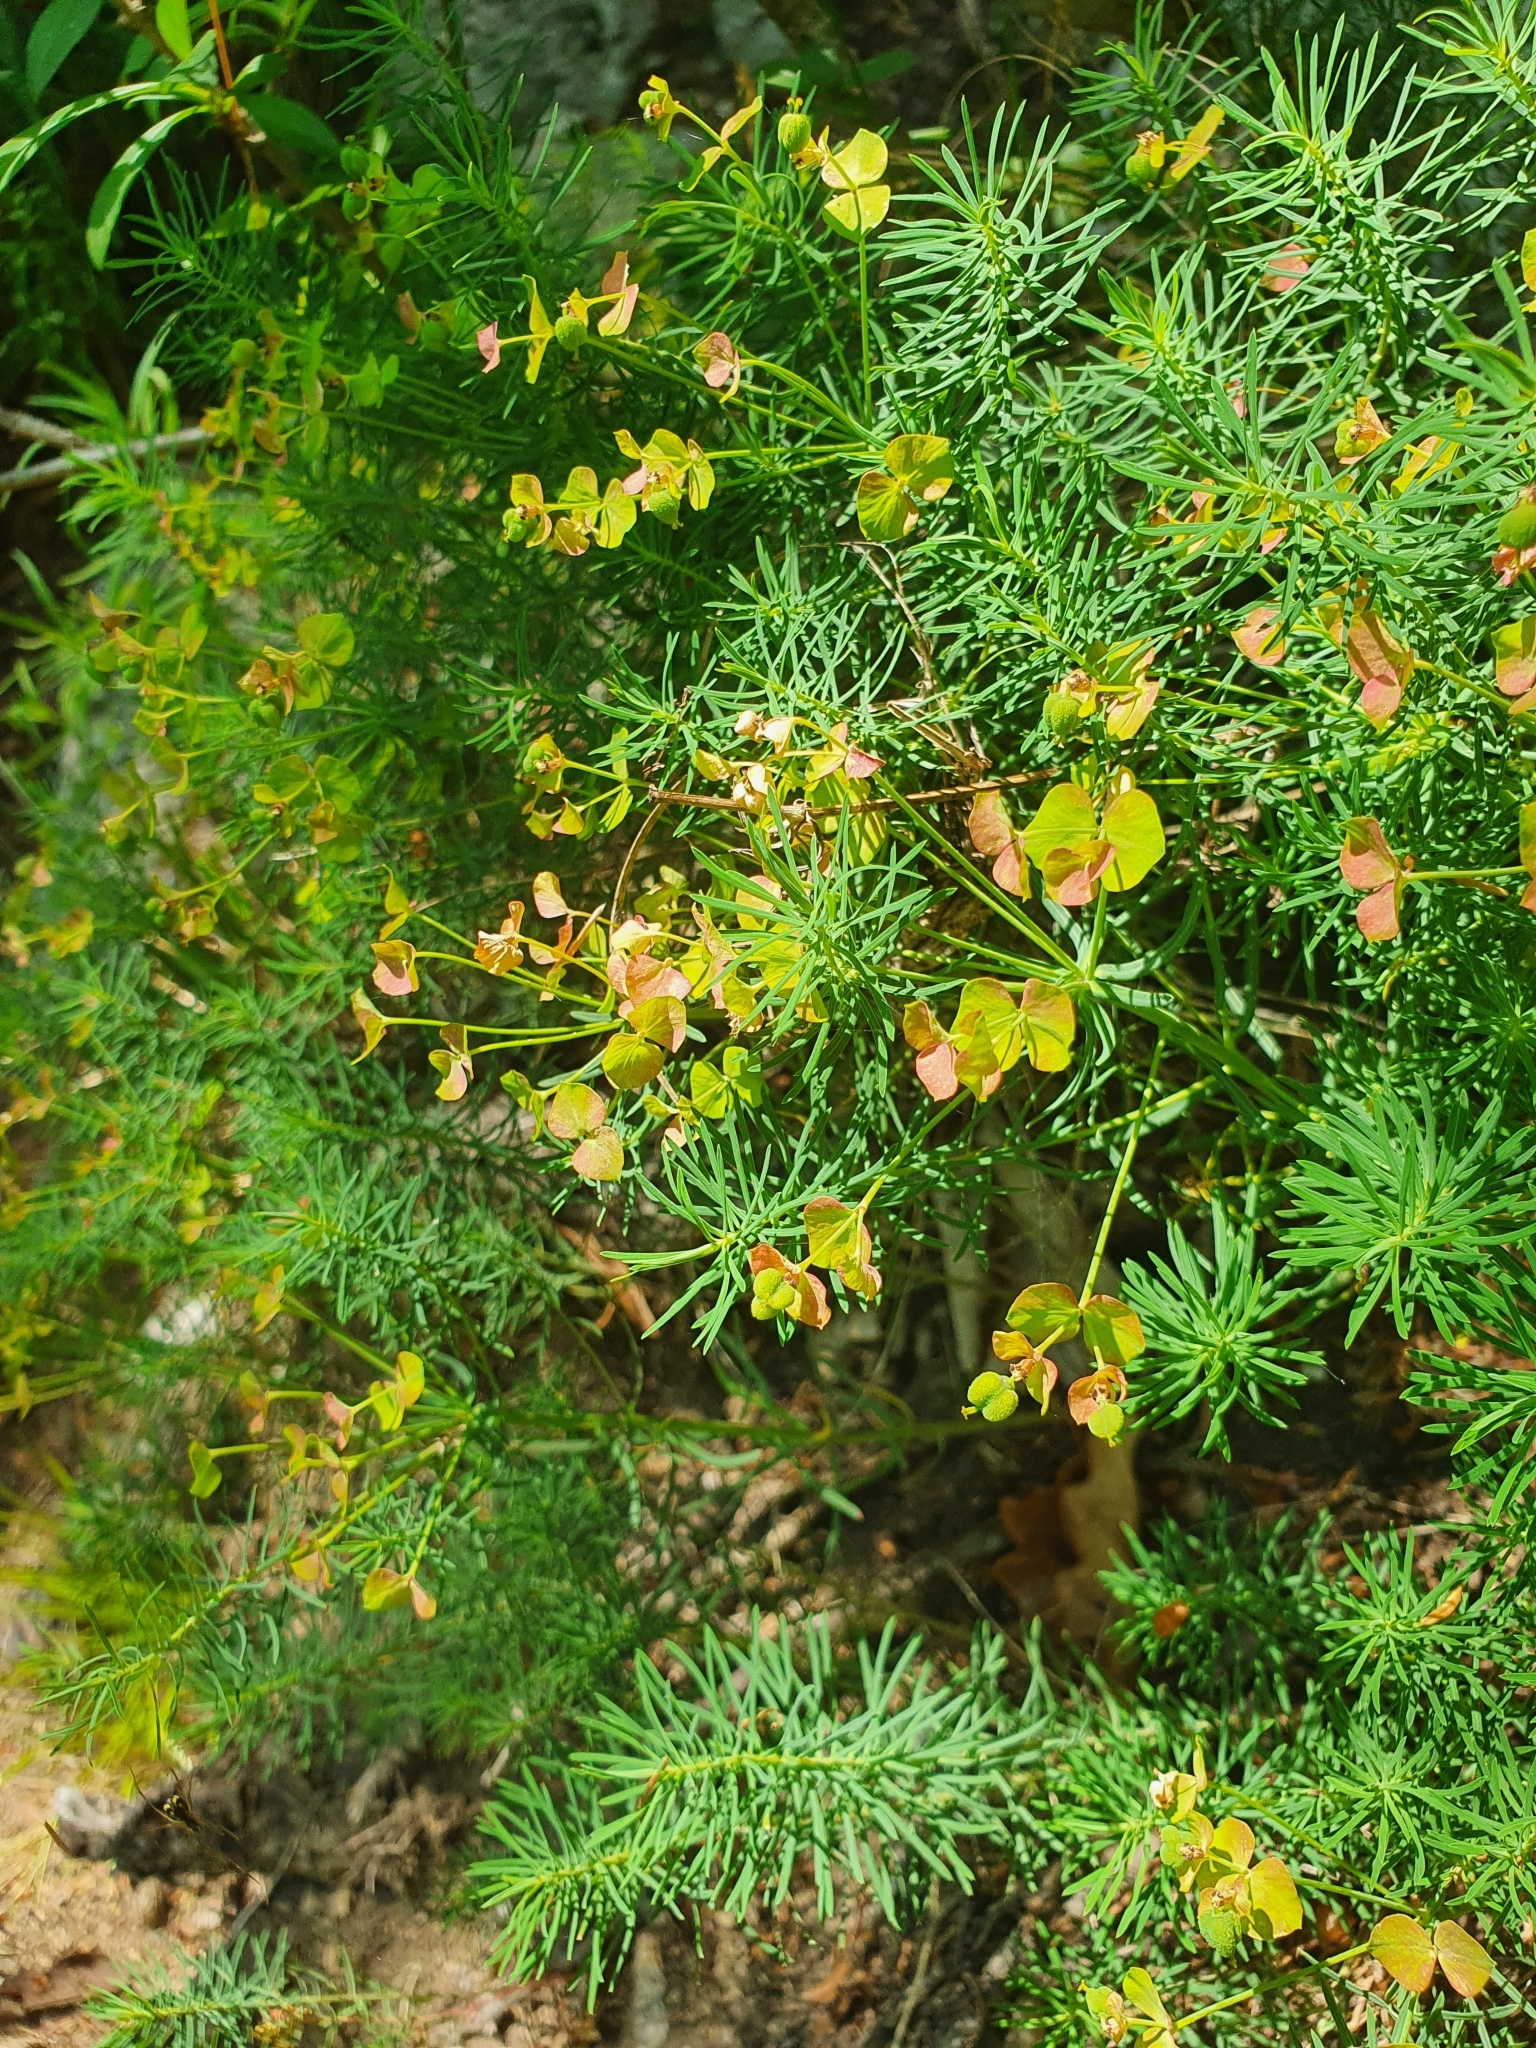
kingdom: Plantae
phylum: Tracheophyta
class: Magnoliopsida
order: Malpighiales
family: Euphorbiaceae
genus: Euphorbia
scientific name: Euphorbia cyparissias
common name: Cypress spurge
